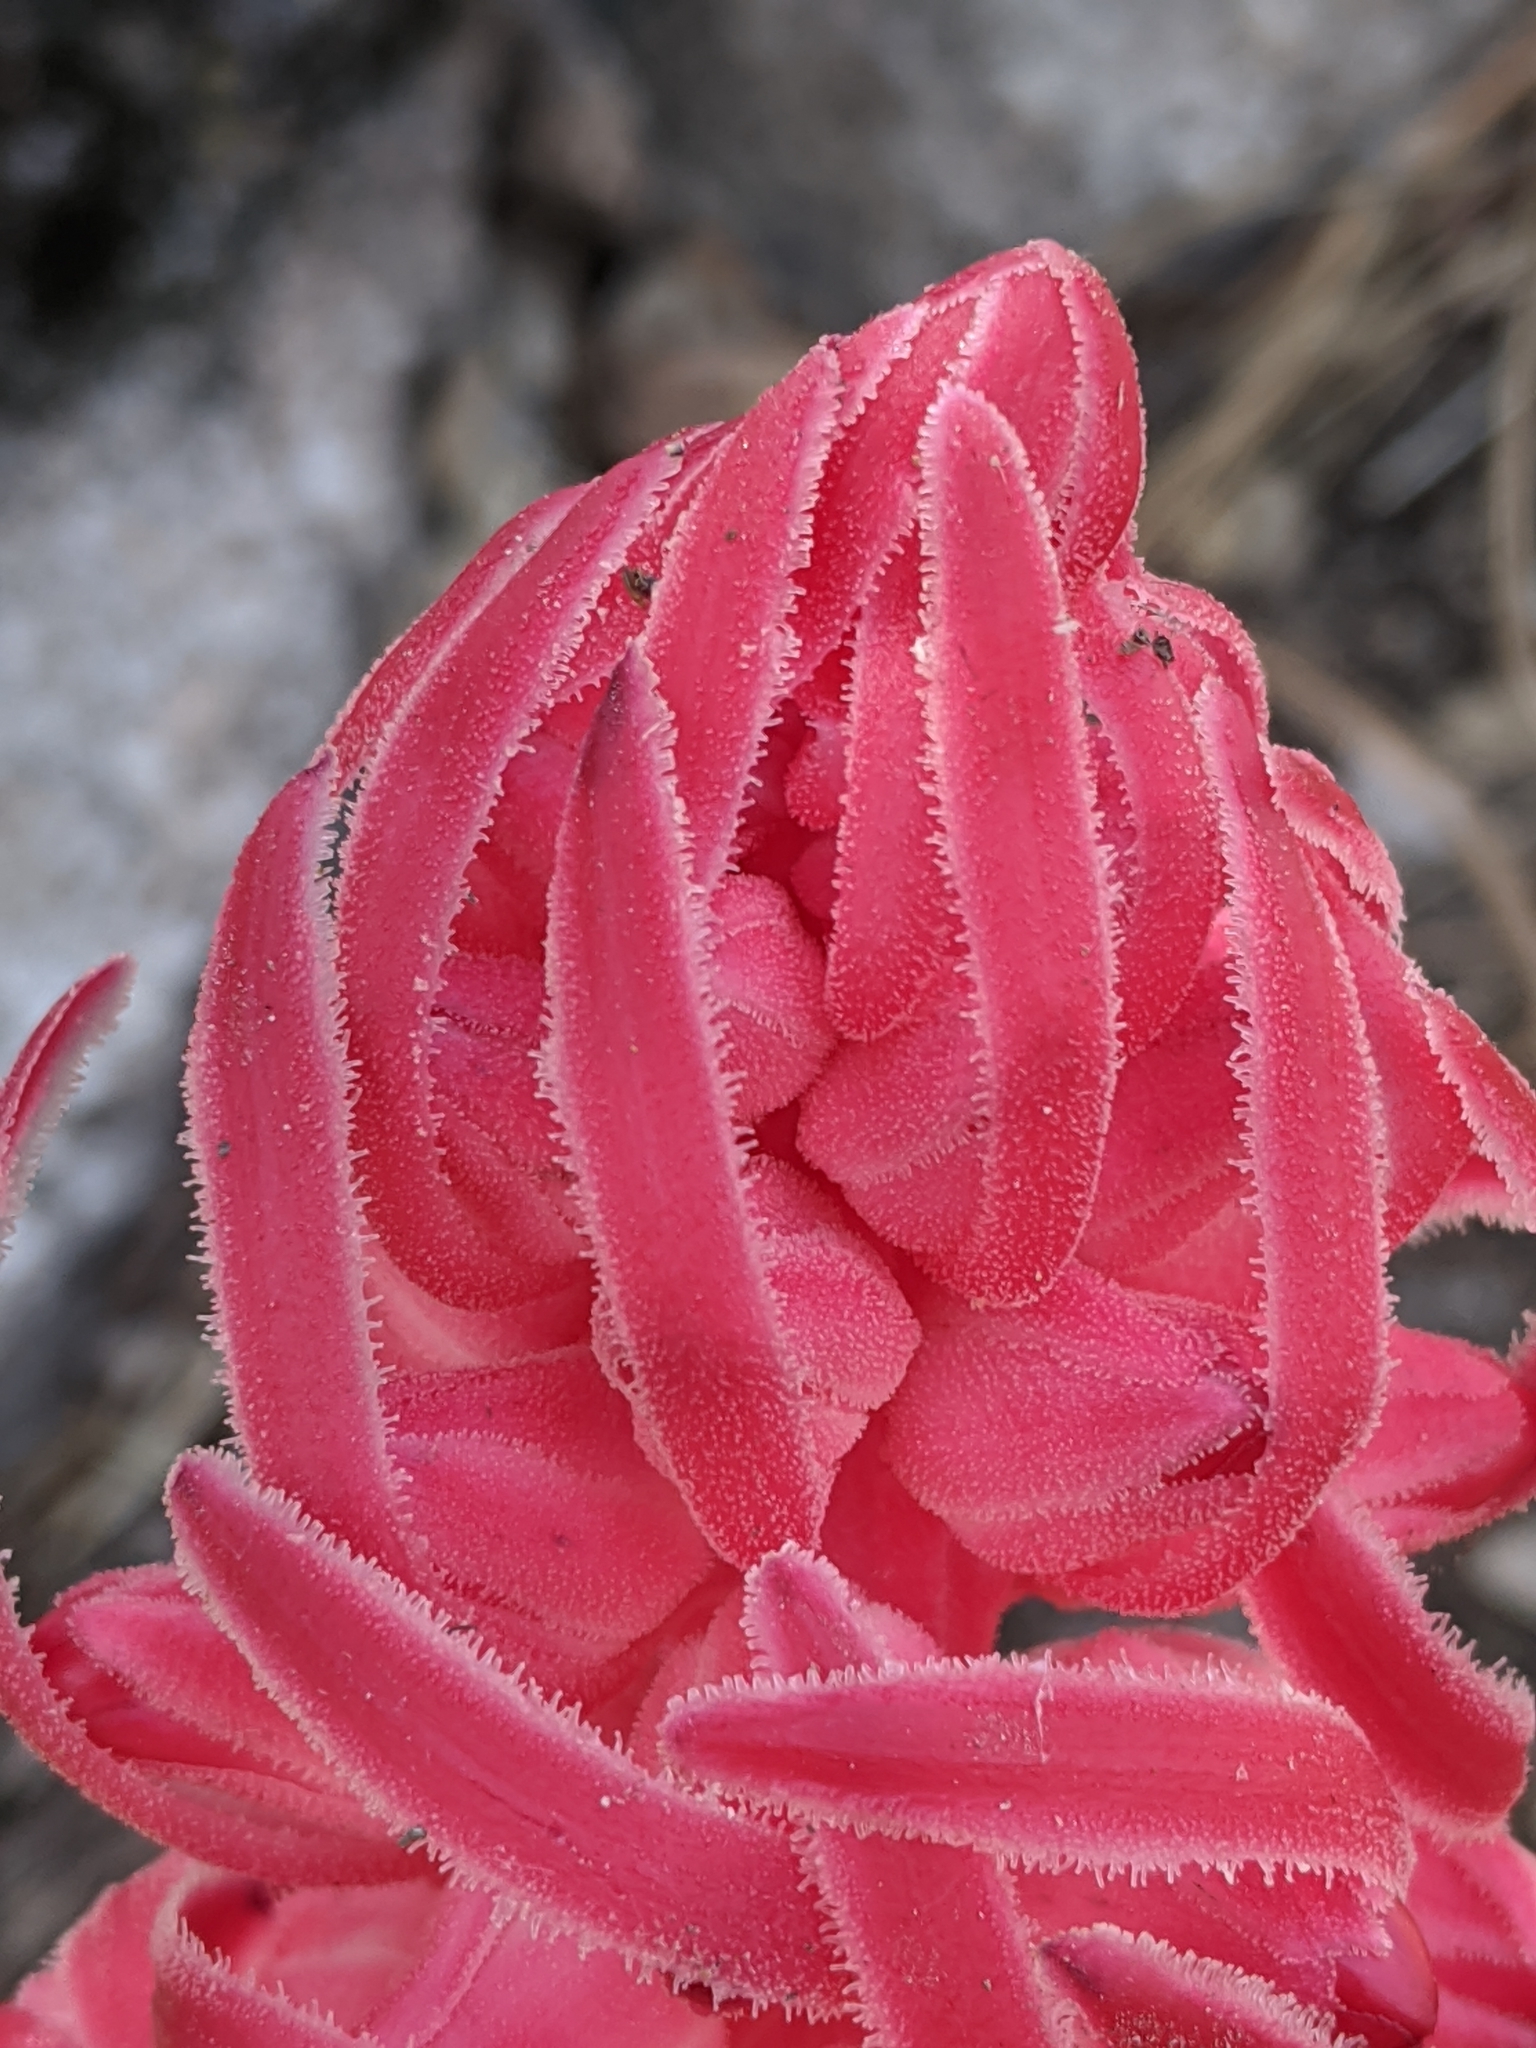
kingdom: Plantae
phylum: Tracheophyta
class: Magnoliopsida
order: Ericales
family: Ericaceae
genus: Sarcodes
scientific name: Sarcodes sanguinea
